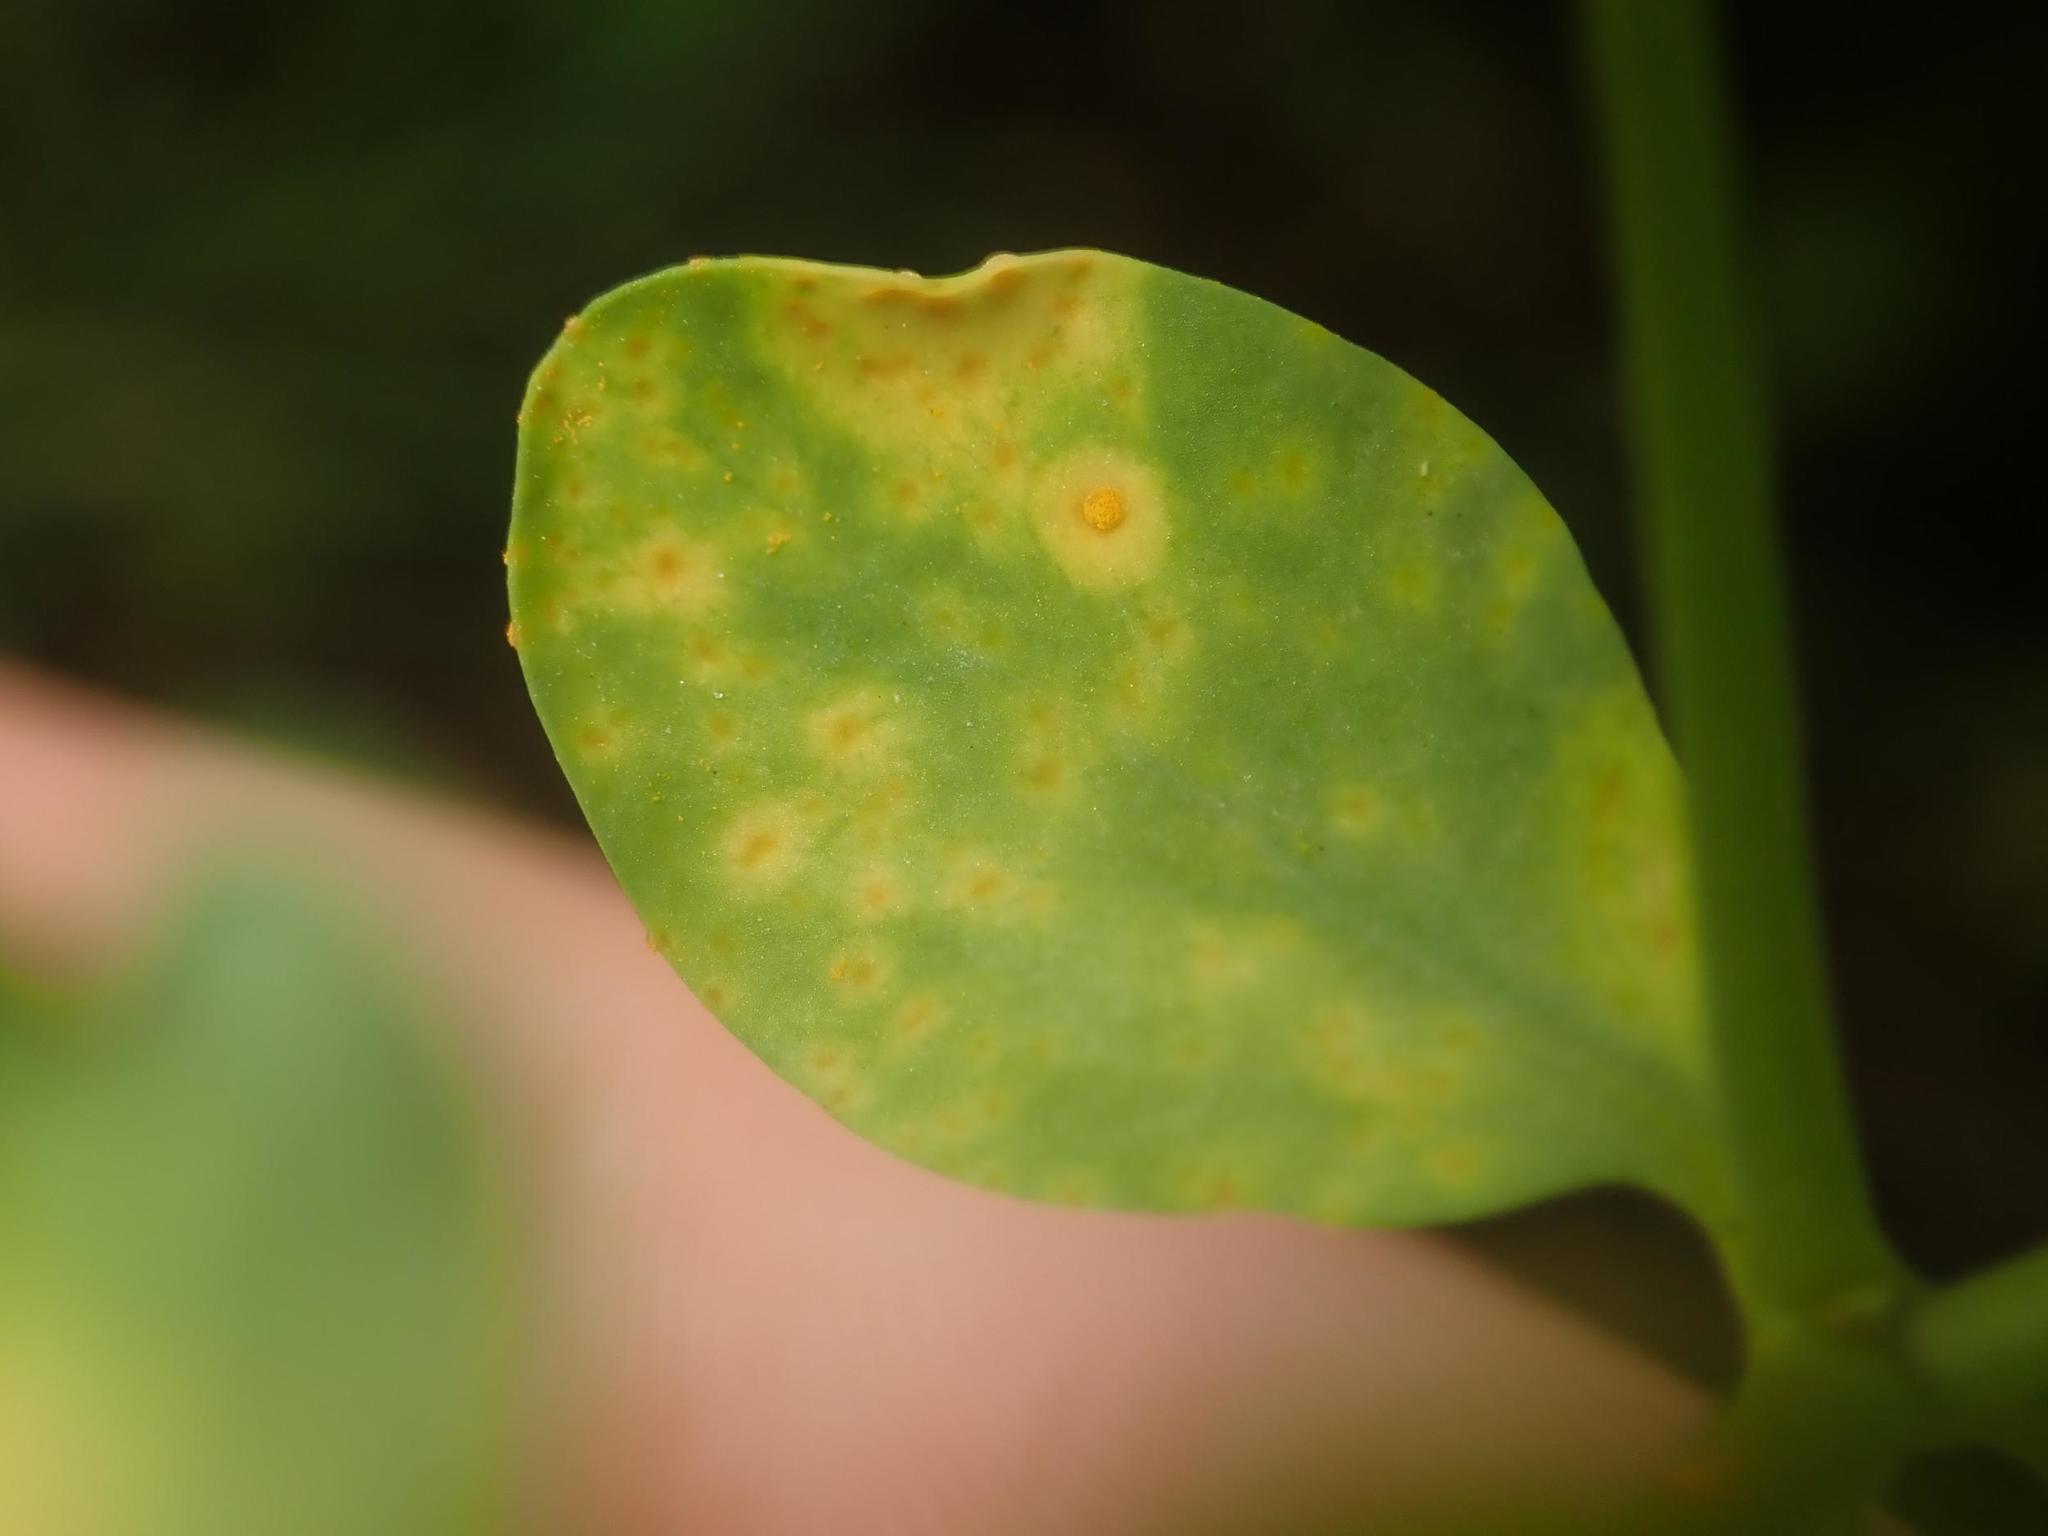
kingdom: Fungi
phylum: Basidiomycota
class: Pucciniomycetes
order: Pucciniales
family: Melampsoraceae
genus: Melampsora
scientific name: Melampsora euphorbiae
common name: Spurge rust
